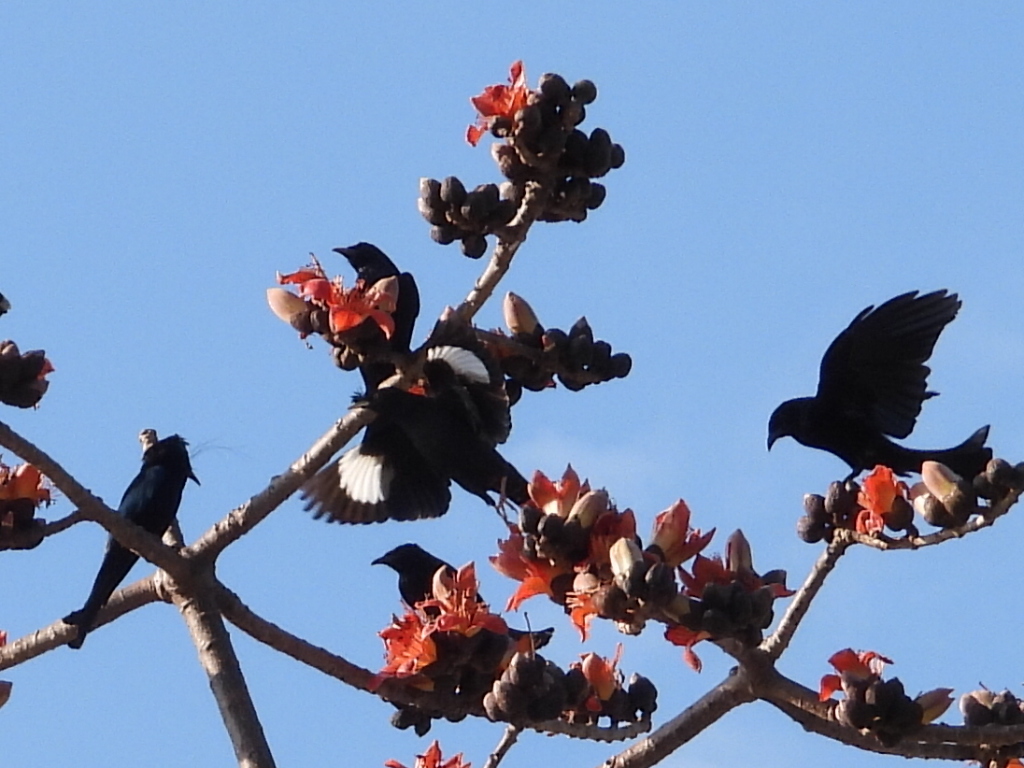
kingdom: Animalia
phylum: Chordata
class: Aves
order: Passeriformes
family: Dicruridae
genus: Dicrurus
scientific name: Dicrurus hottentottus
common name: Hair-crested drongo
